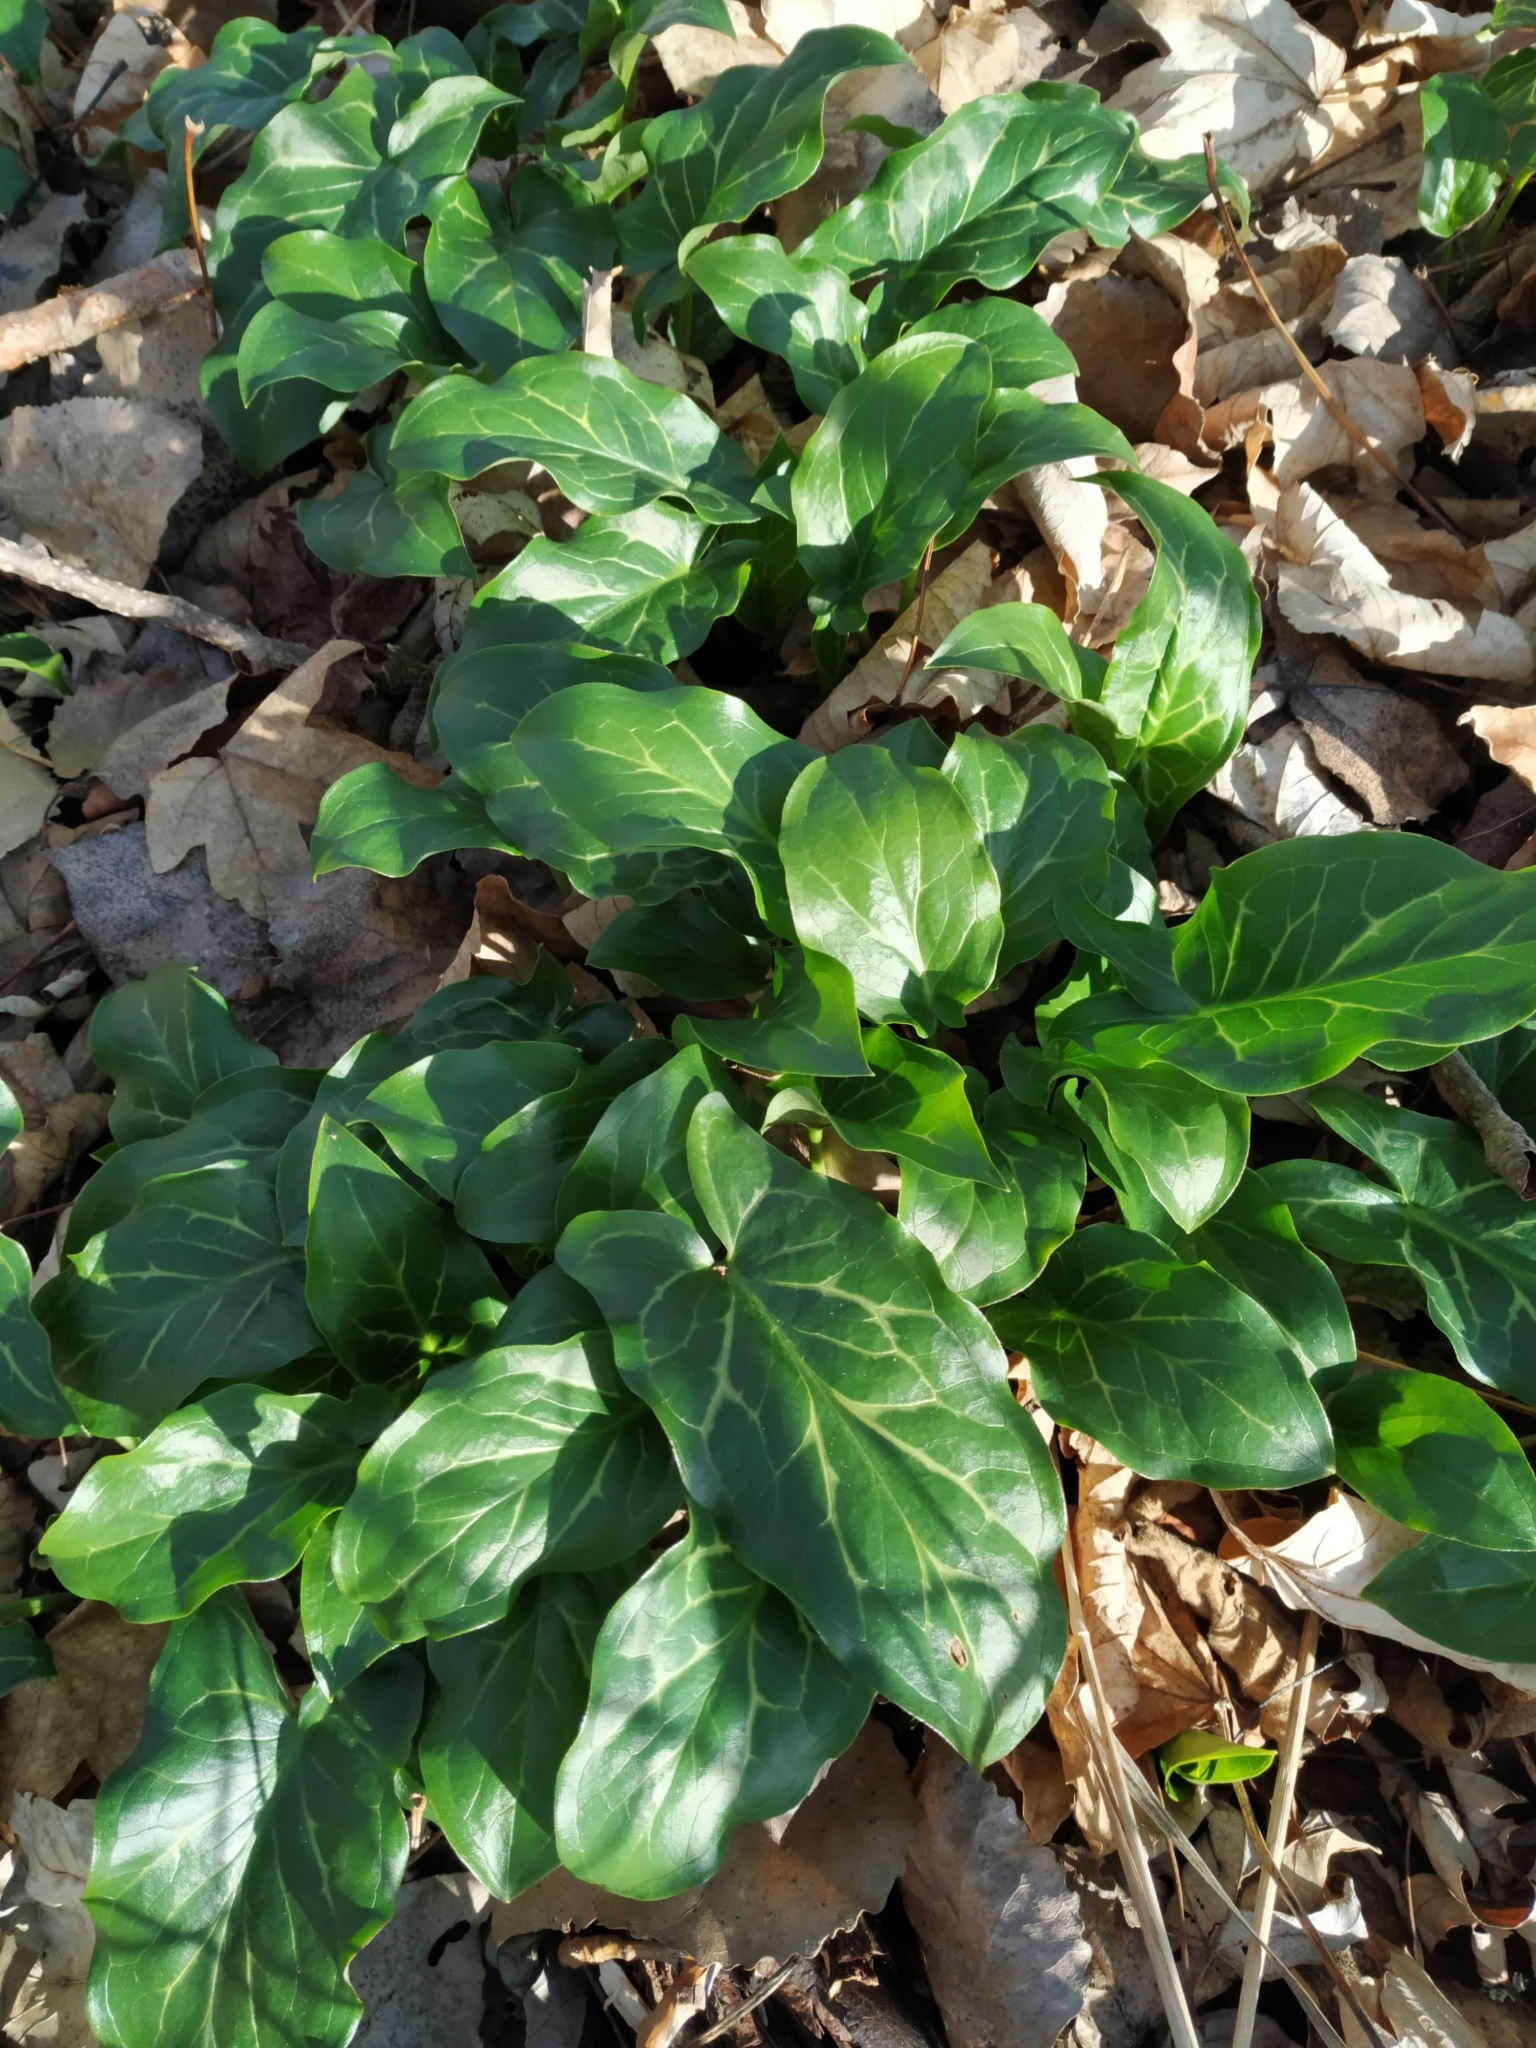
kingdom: Plantae
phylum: Tracheophyta
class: Liliopsida
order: Alismatales
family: Araceae
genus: Arum
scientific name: Arum italicum
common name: Italian lords-and-ladies
